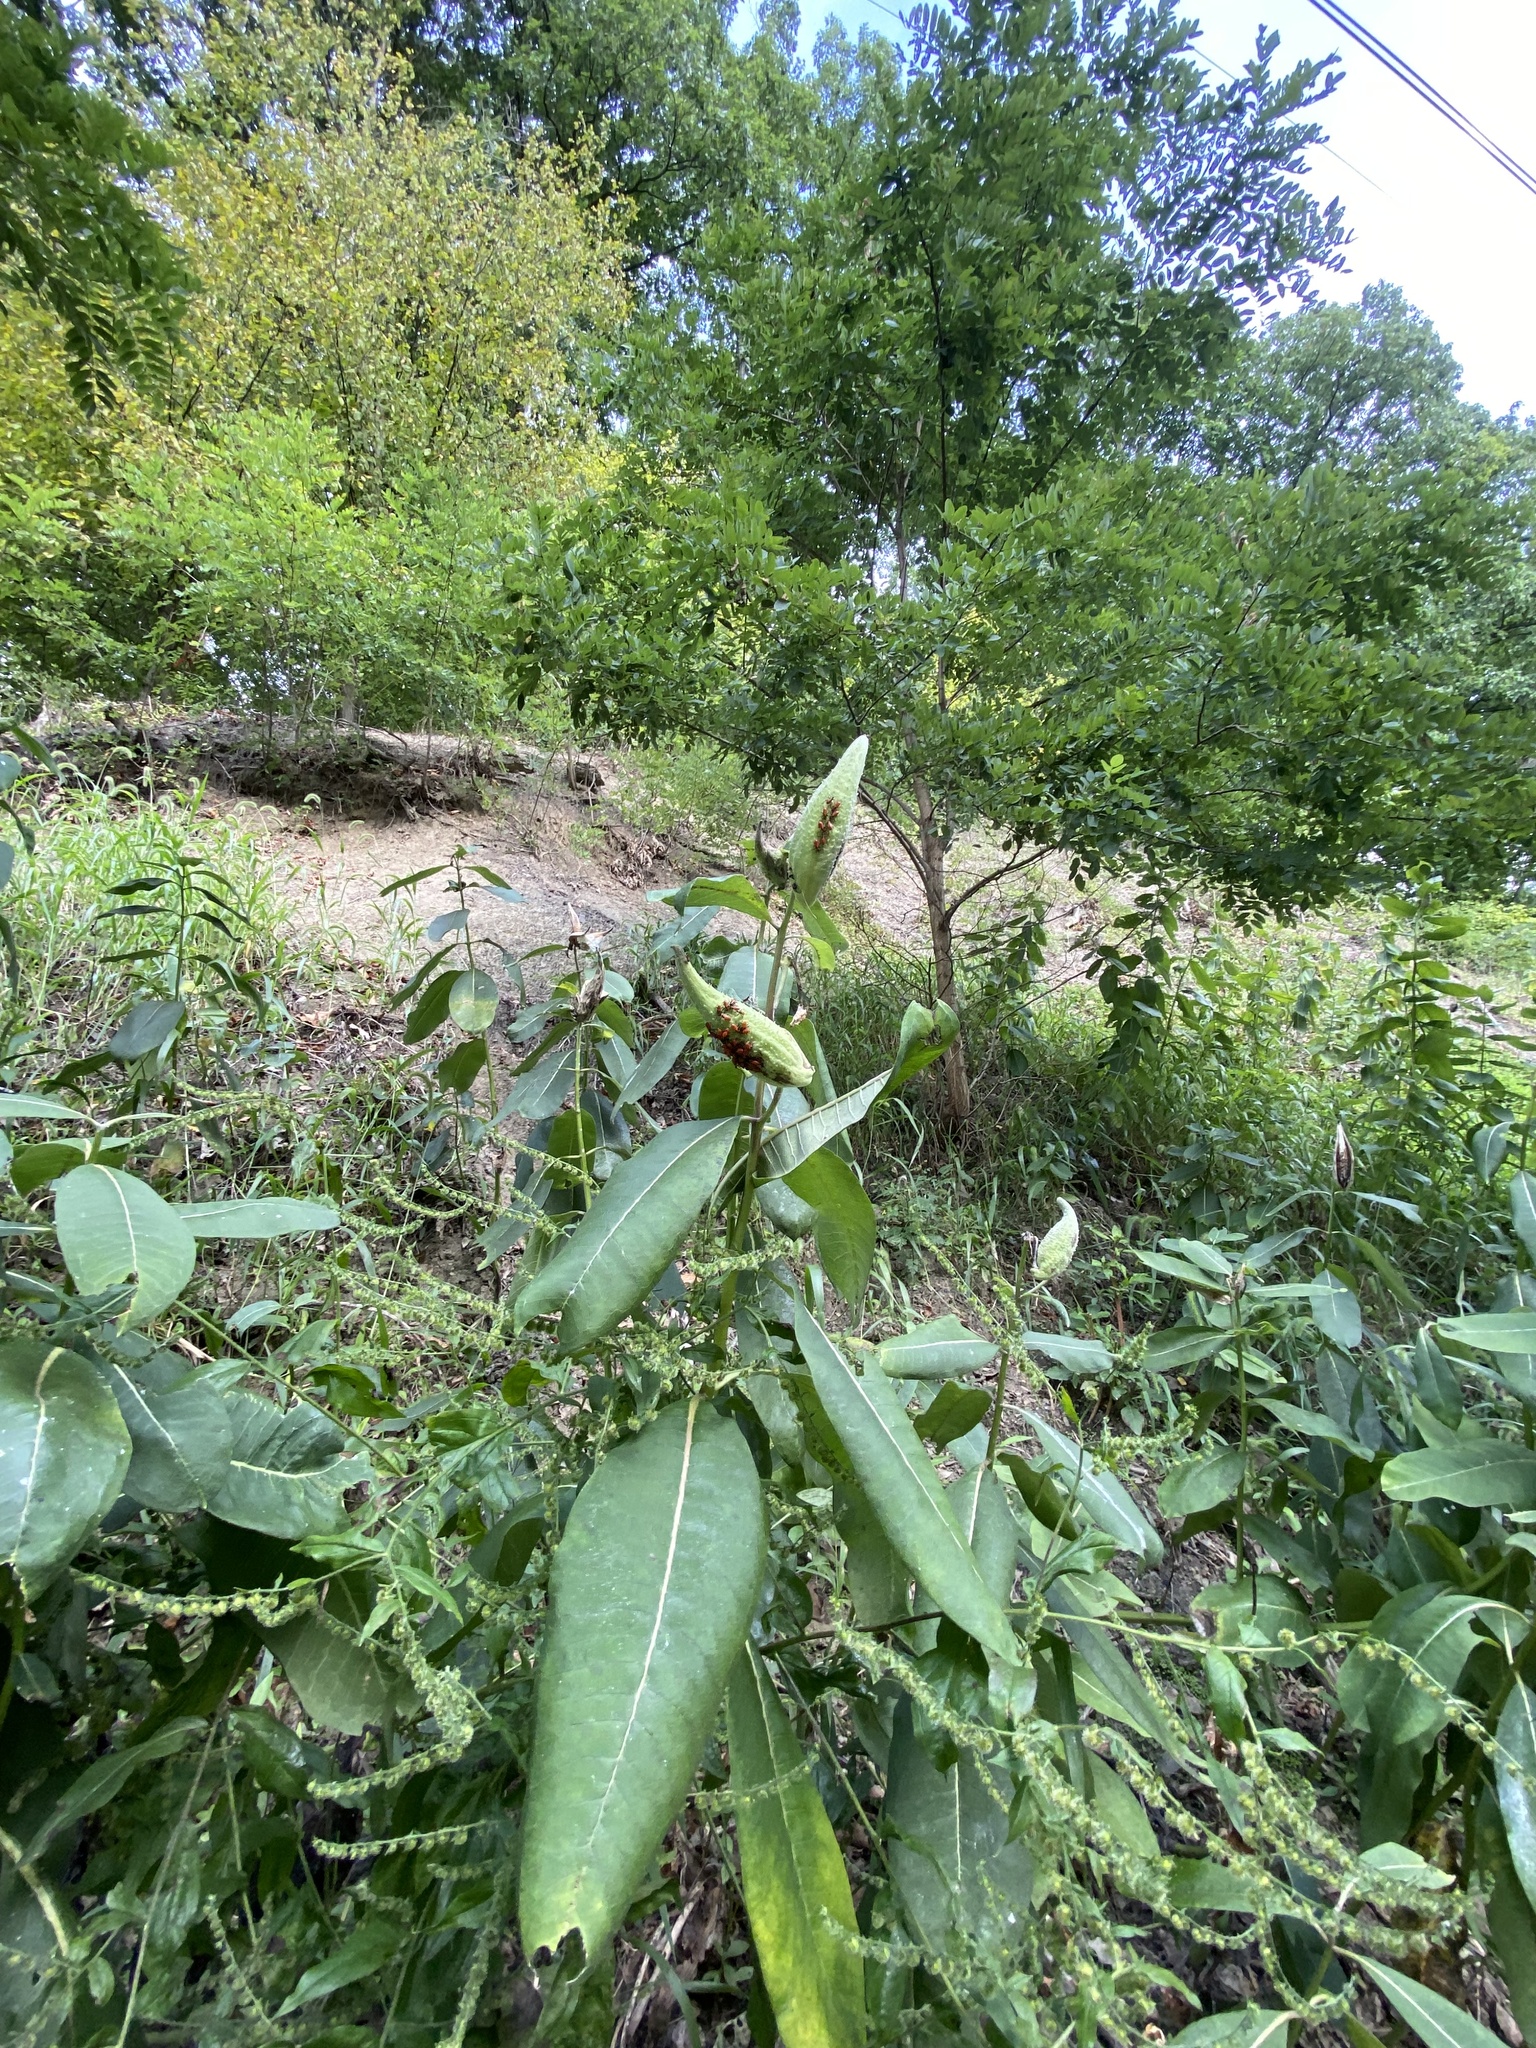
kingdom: Plantae
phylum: Tracheophyta
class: Magnoliopsida
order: Gentianales
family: Apocynaceae
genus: Asclepias
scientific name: Asclepias syriaca
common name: Common milkweed
